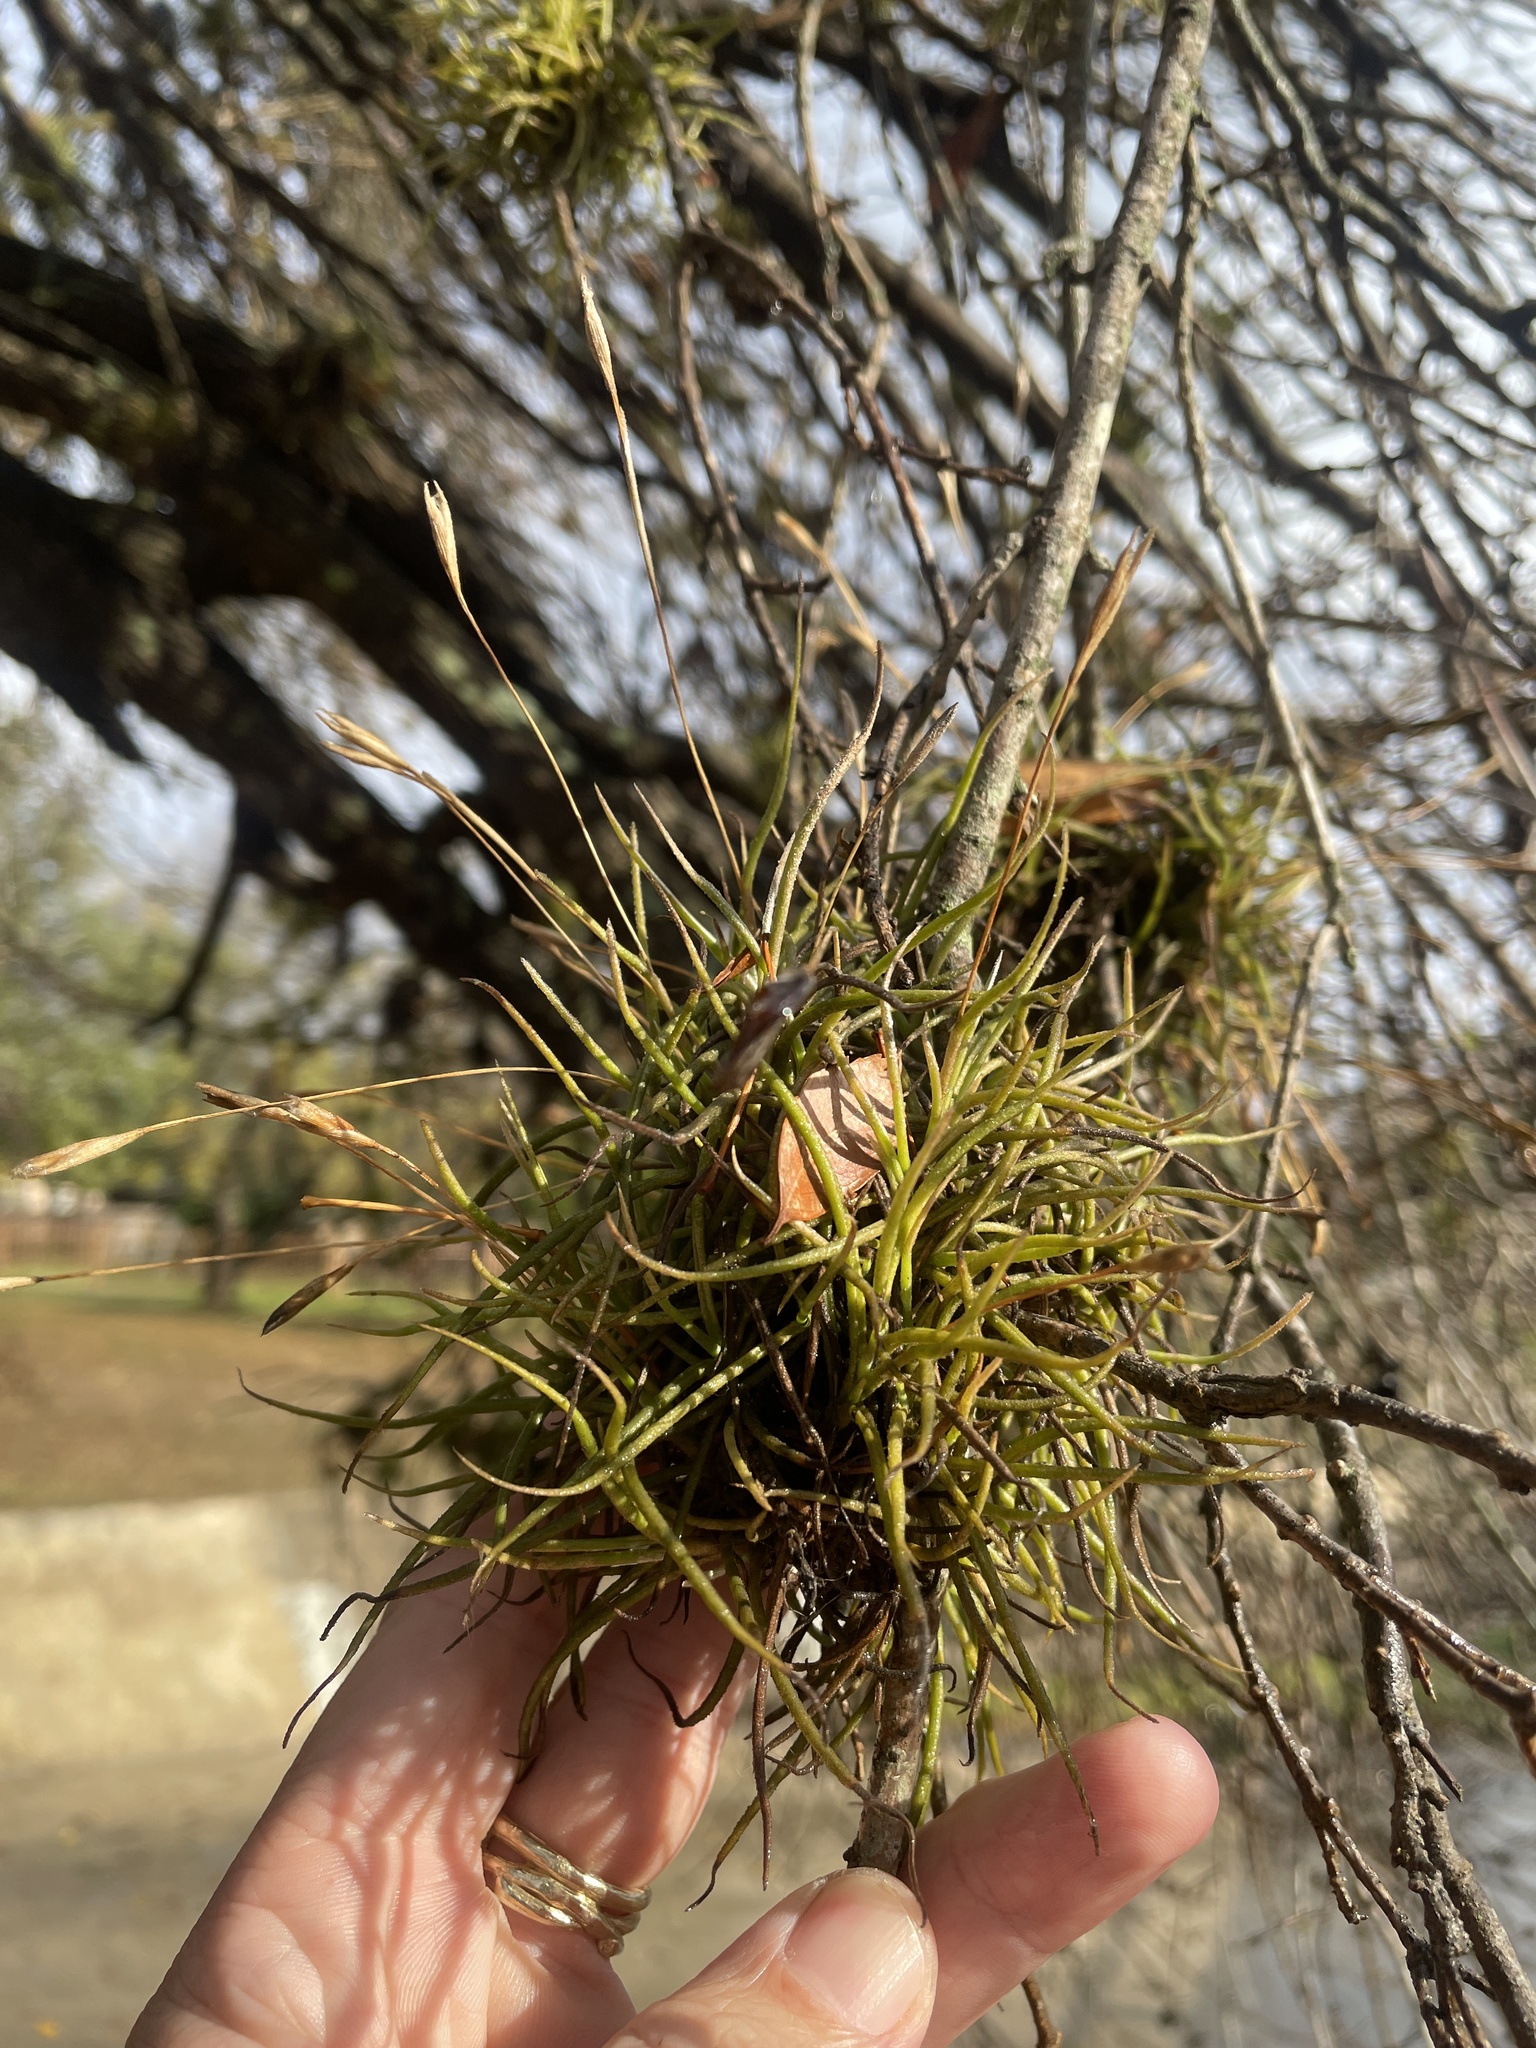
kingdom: Plantae
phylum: Tracheophyta
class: Liliopsida
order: Poales
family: Bromeliaceae
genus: Tillandsia
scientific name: Tillandsia recurvata
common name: Small ballmoss
